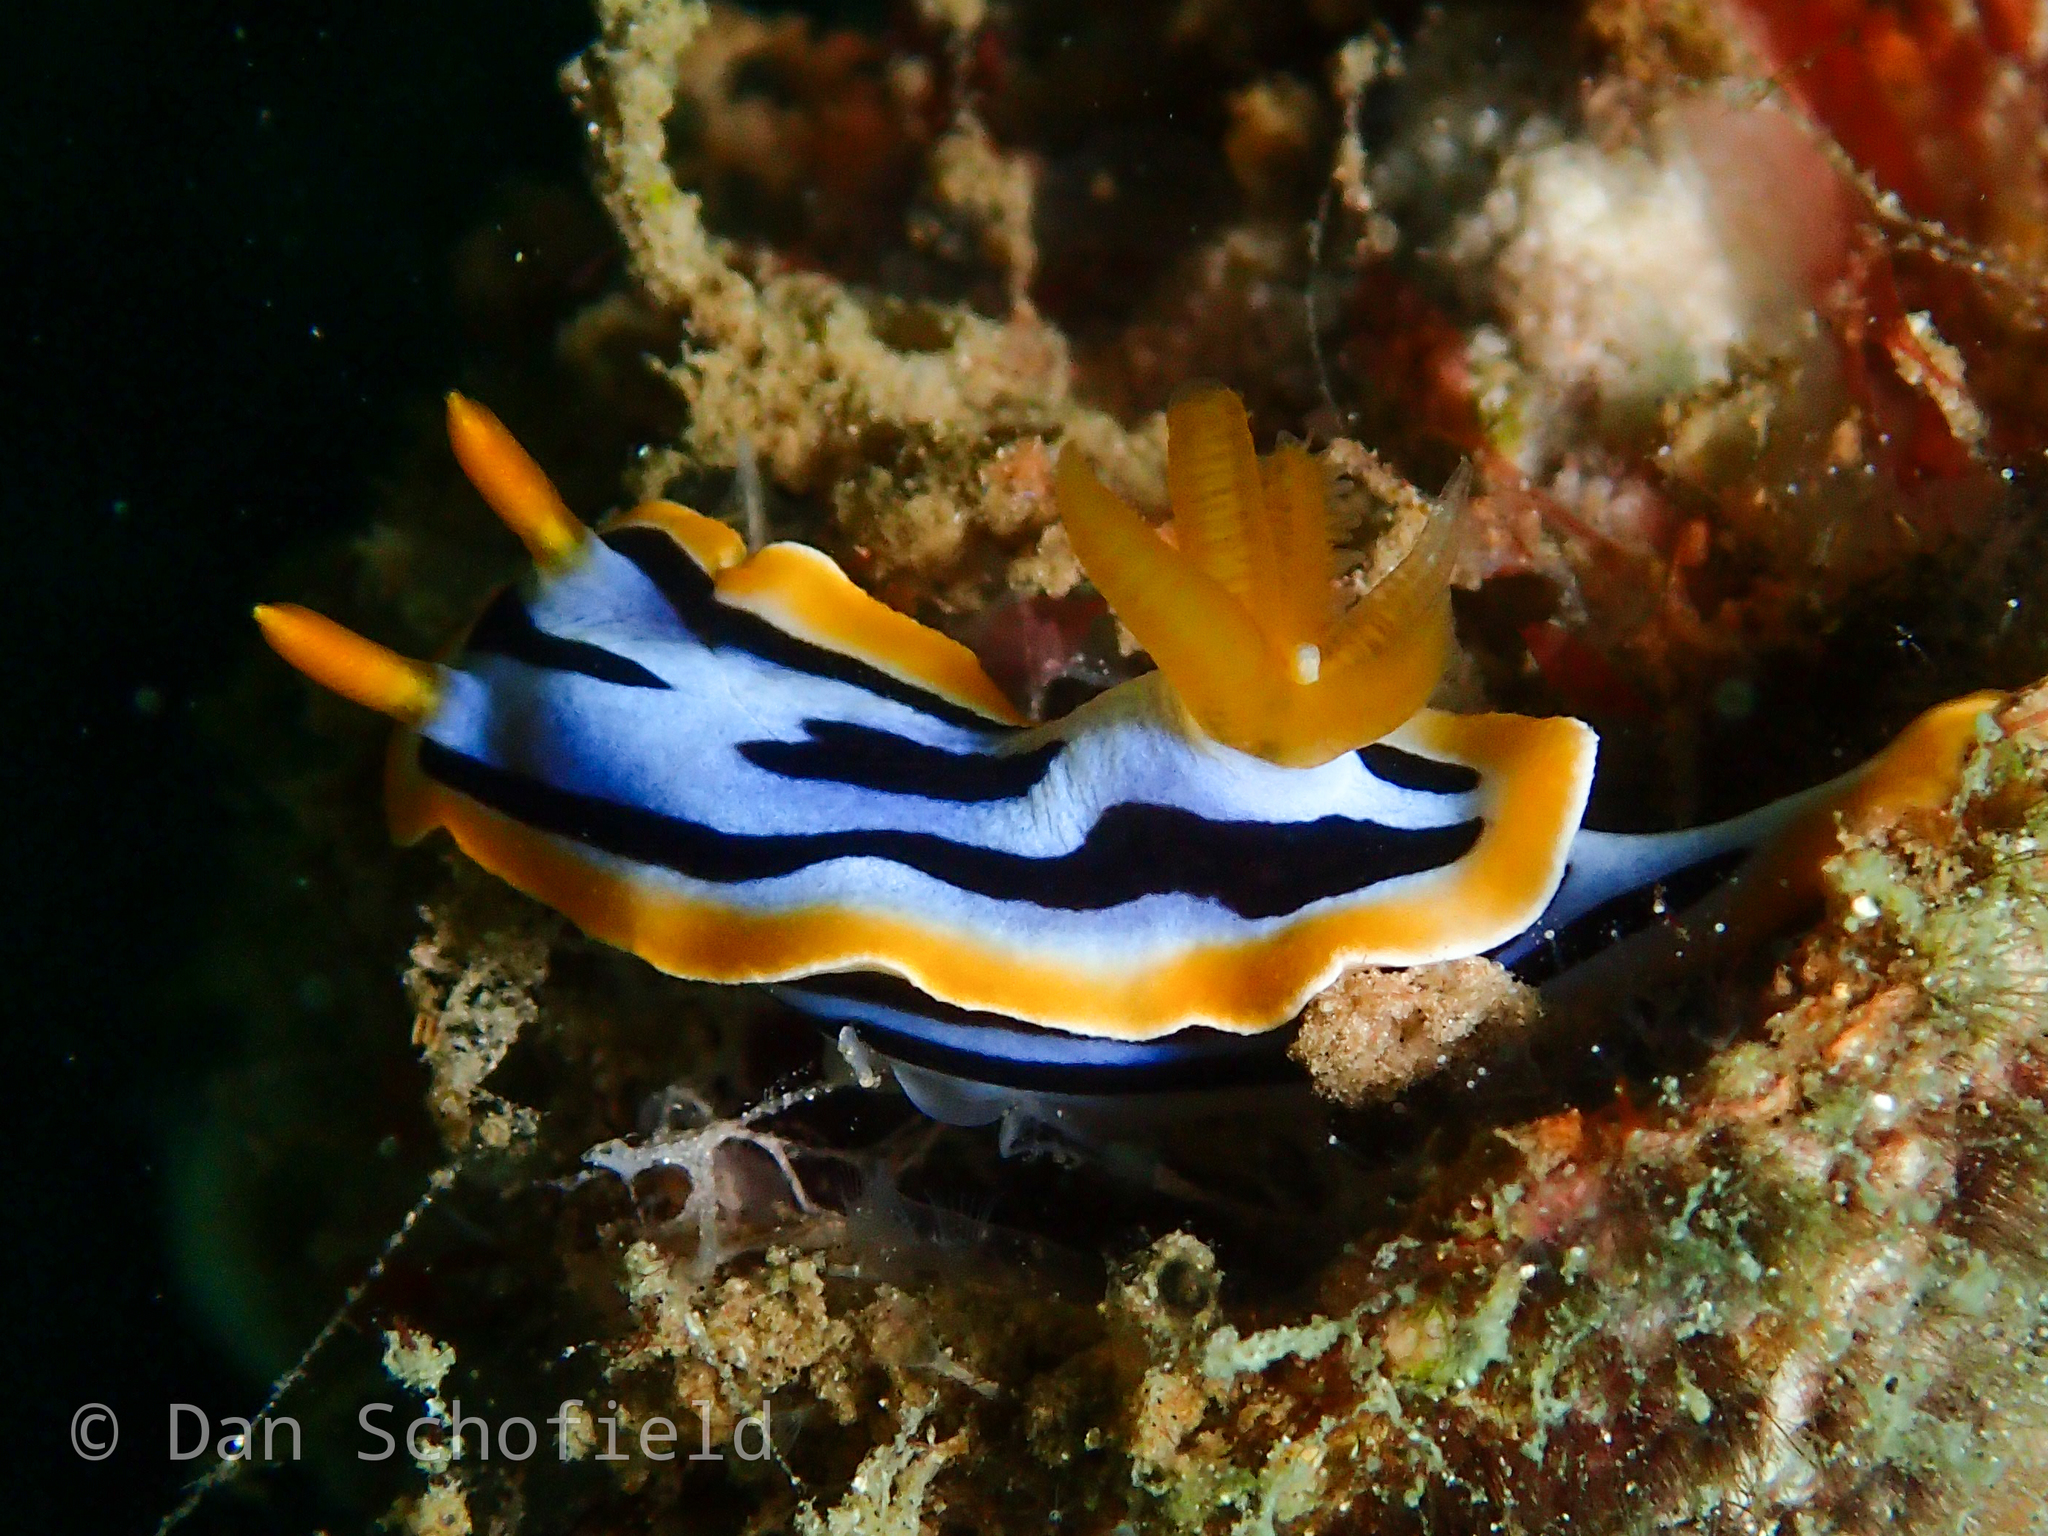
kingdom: Animalia
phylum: Mollusca
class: Gastropoda
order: Nudibranchia
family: Chromodorididae
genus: Chromodoris
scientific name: Chromodoris strigata
